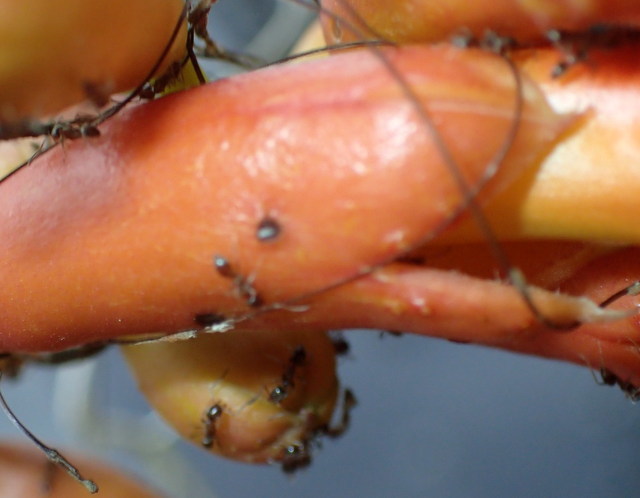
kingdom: Animalia
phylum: Arthropoda
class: Insecta
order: Hymenoptera
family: Formicidae
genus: Linepithema
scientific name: Linepithema humile
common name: Argentine ant
